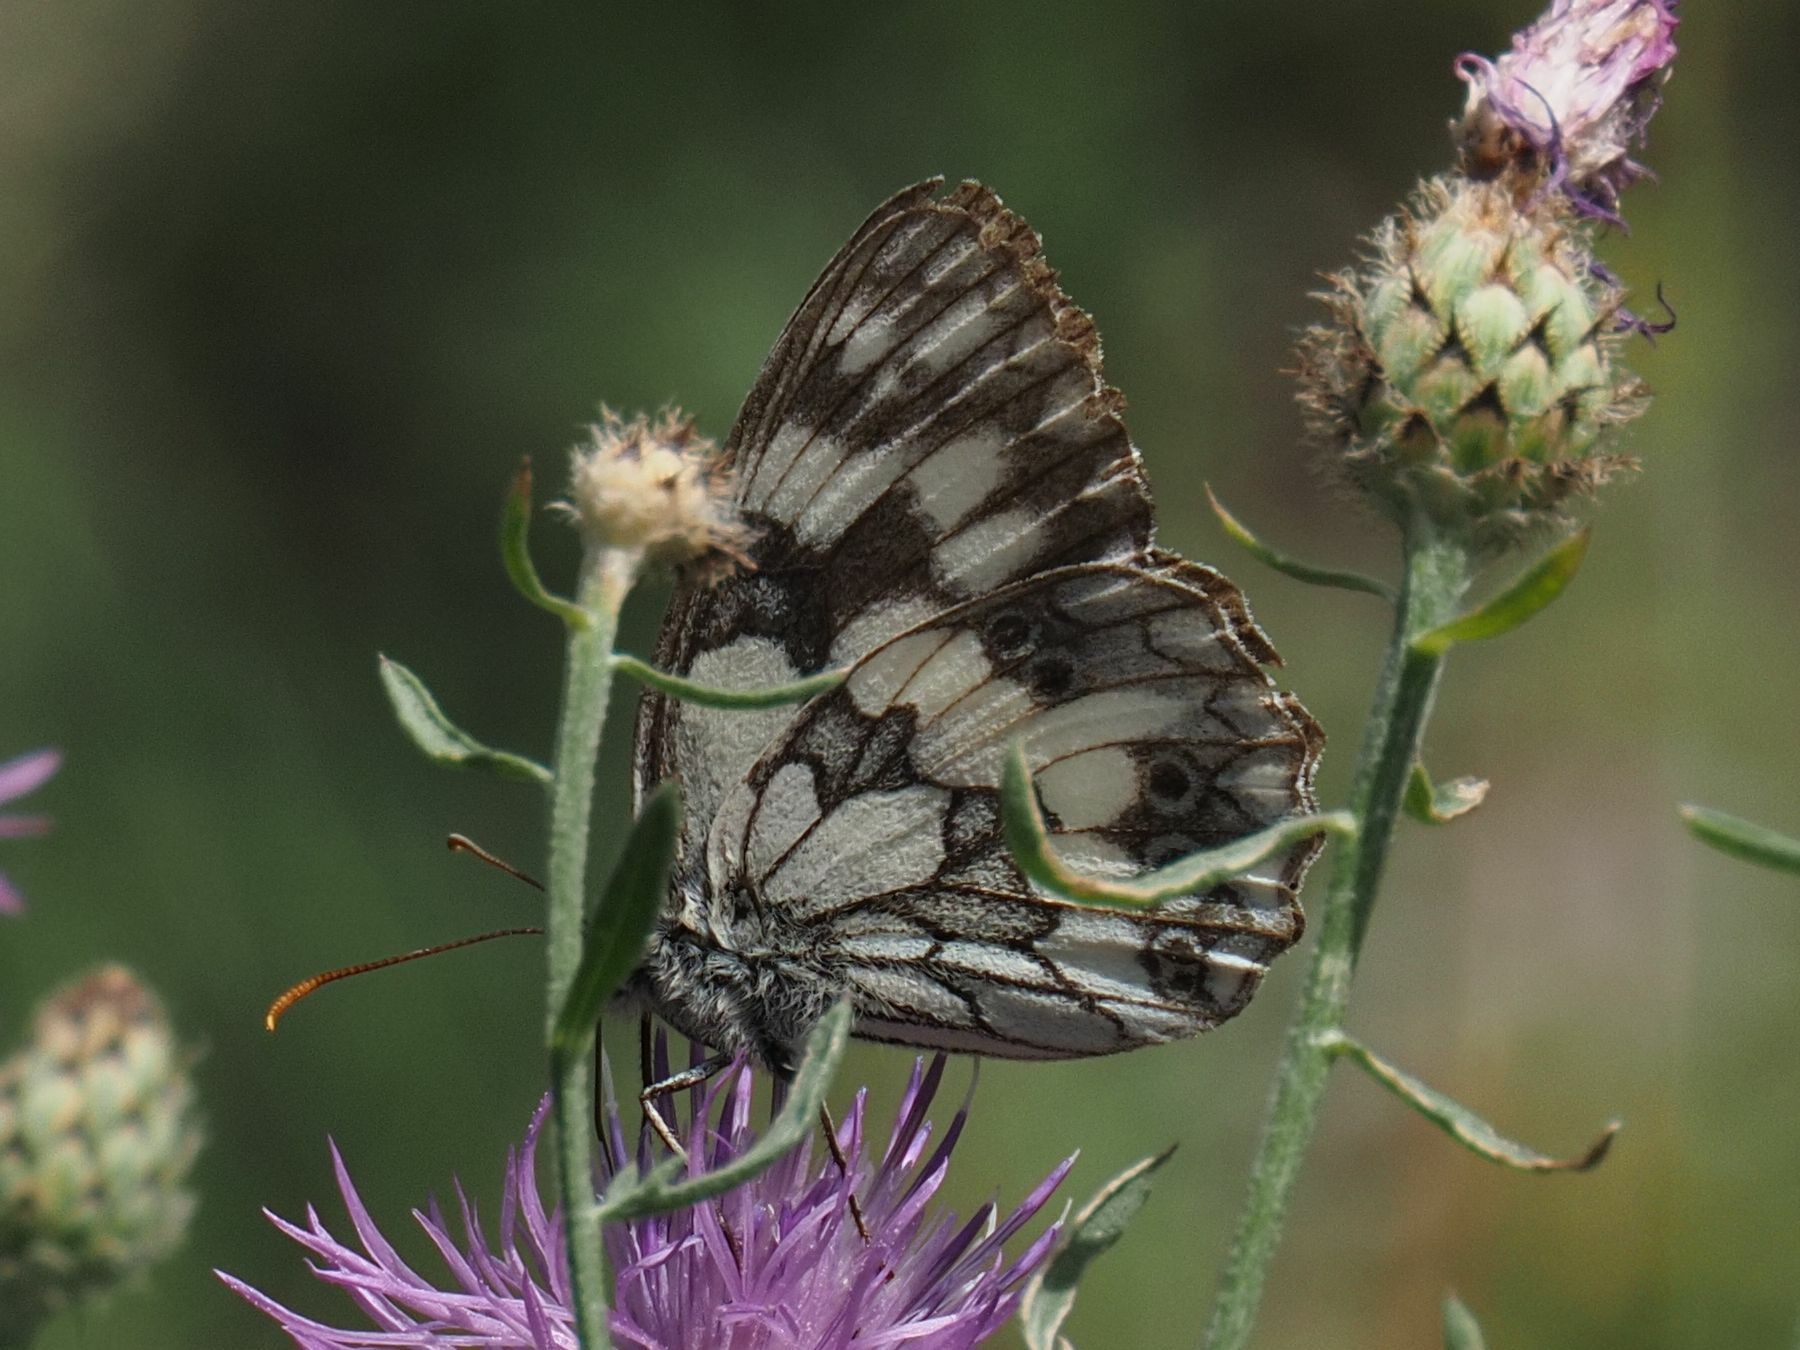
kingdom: Animalia
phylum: Arthropoda
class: Insecta
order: Lepidoptera
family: Nymphalidae
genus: Melanargia
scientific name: Melanargia galathea
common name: Marbled white
